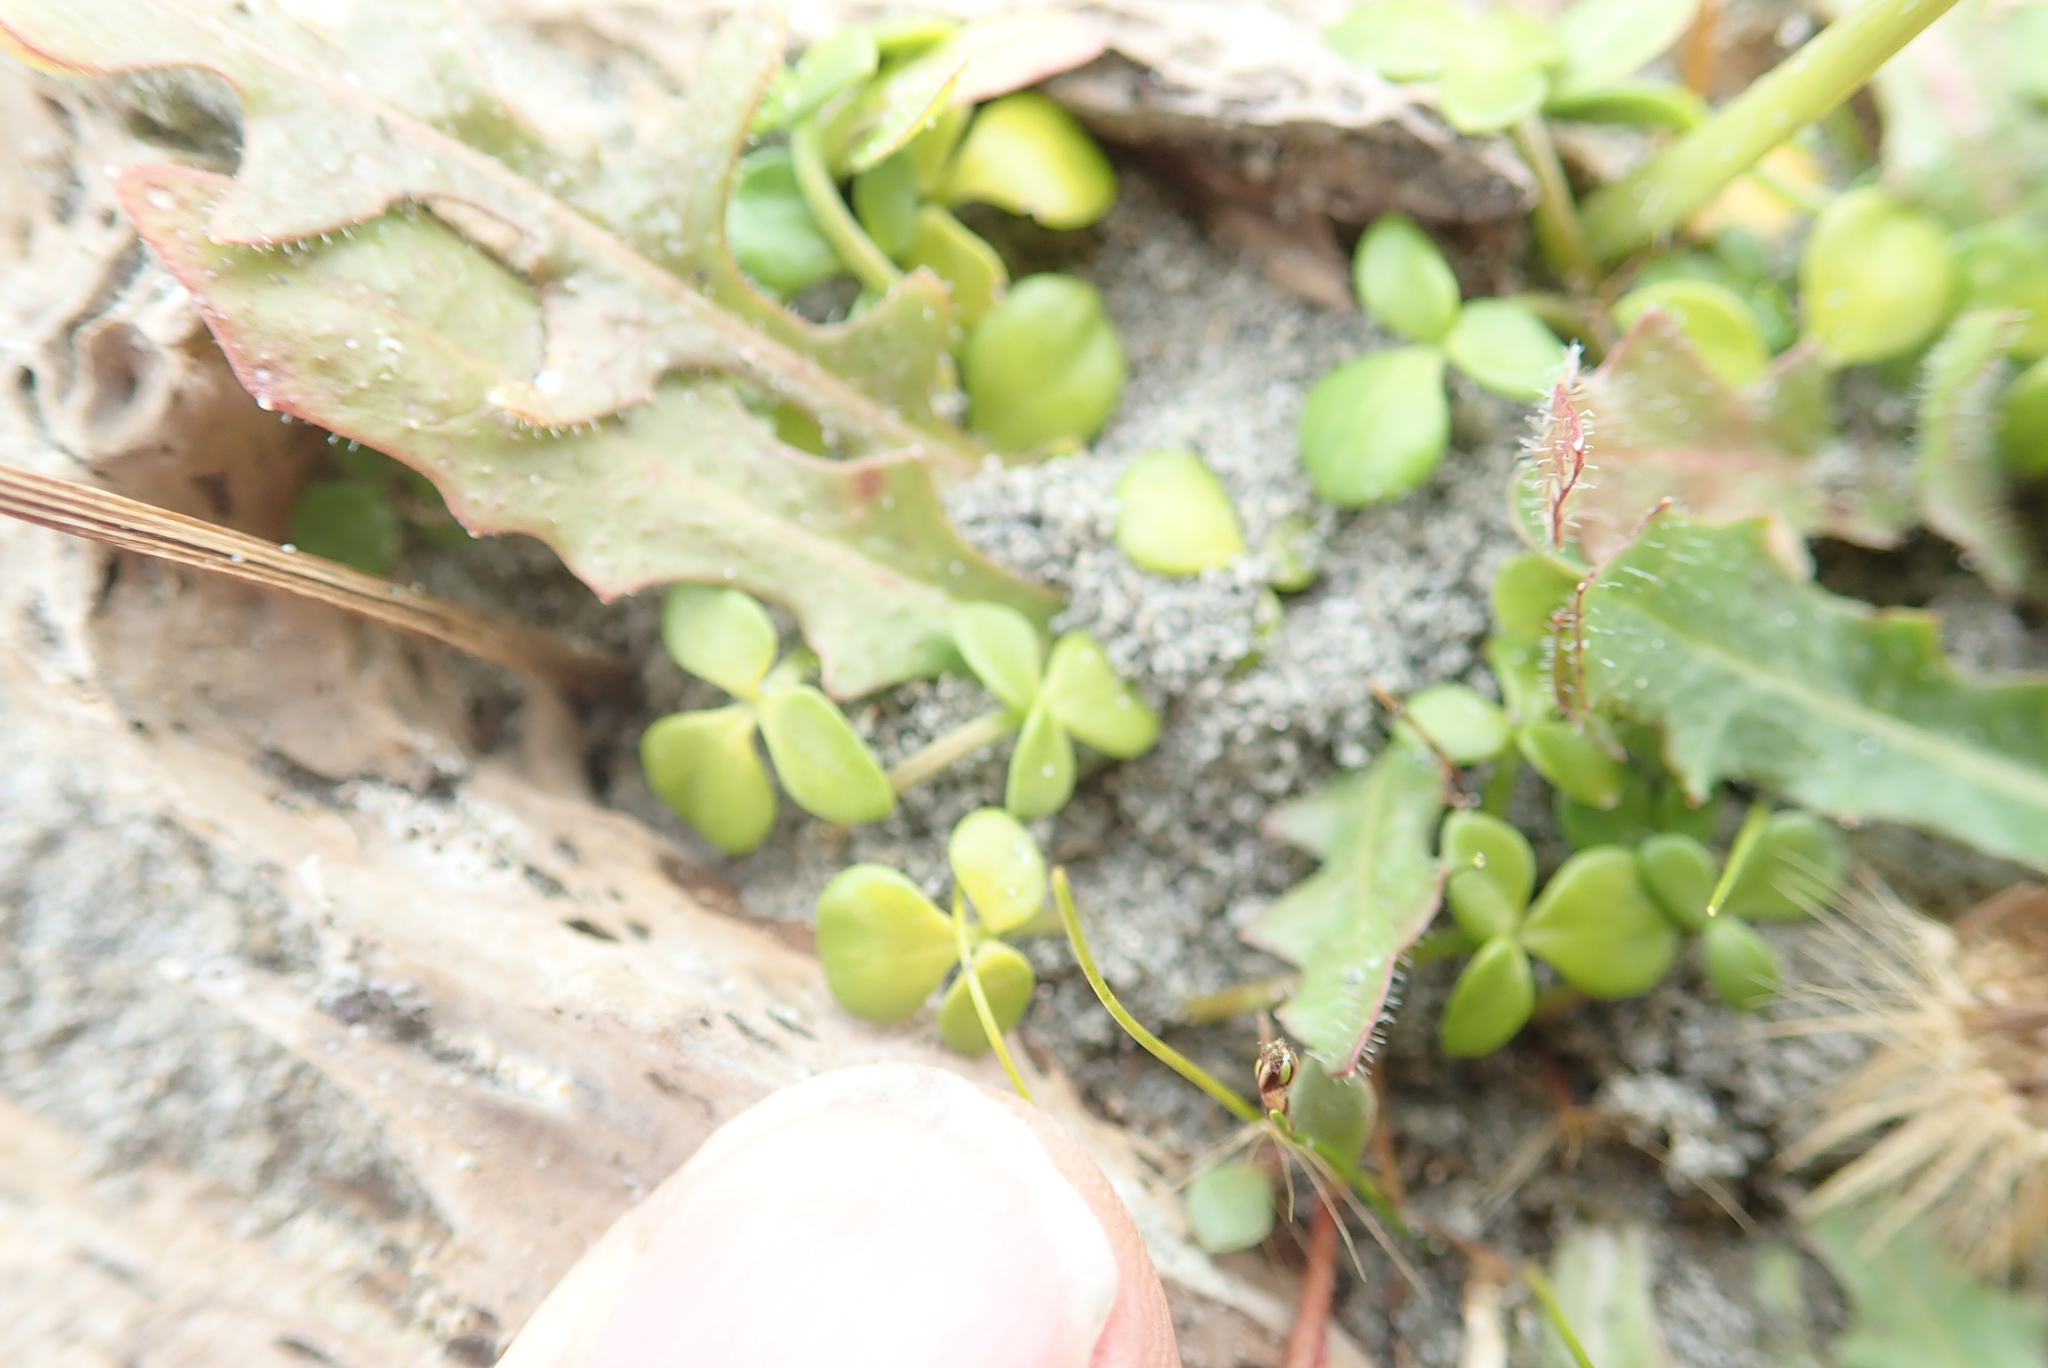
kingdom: Plantae
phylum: Tracheophyta
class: Magnoliopsida
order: Ranunculales
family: Ranunculaceae
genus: Ranunculus
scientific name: Ranunculus acaulis
